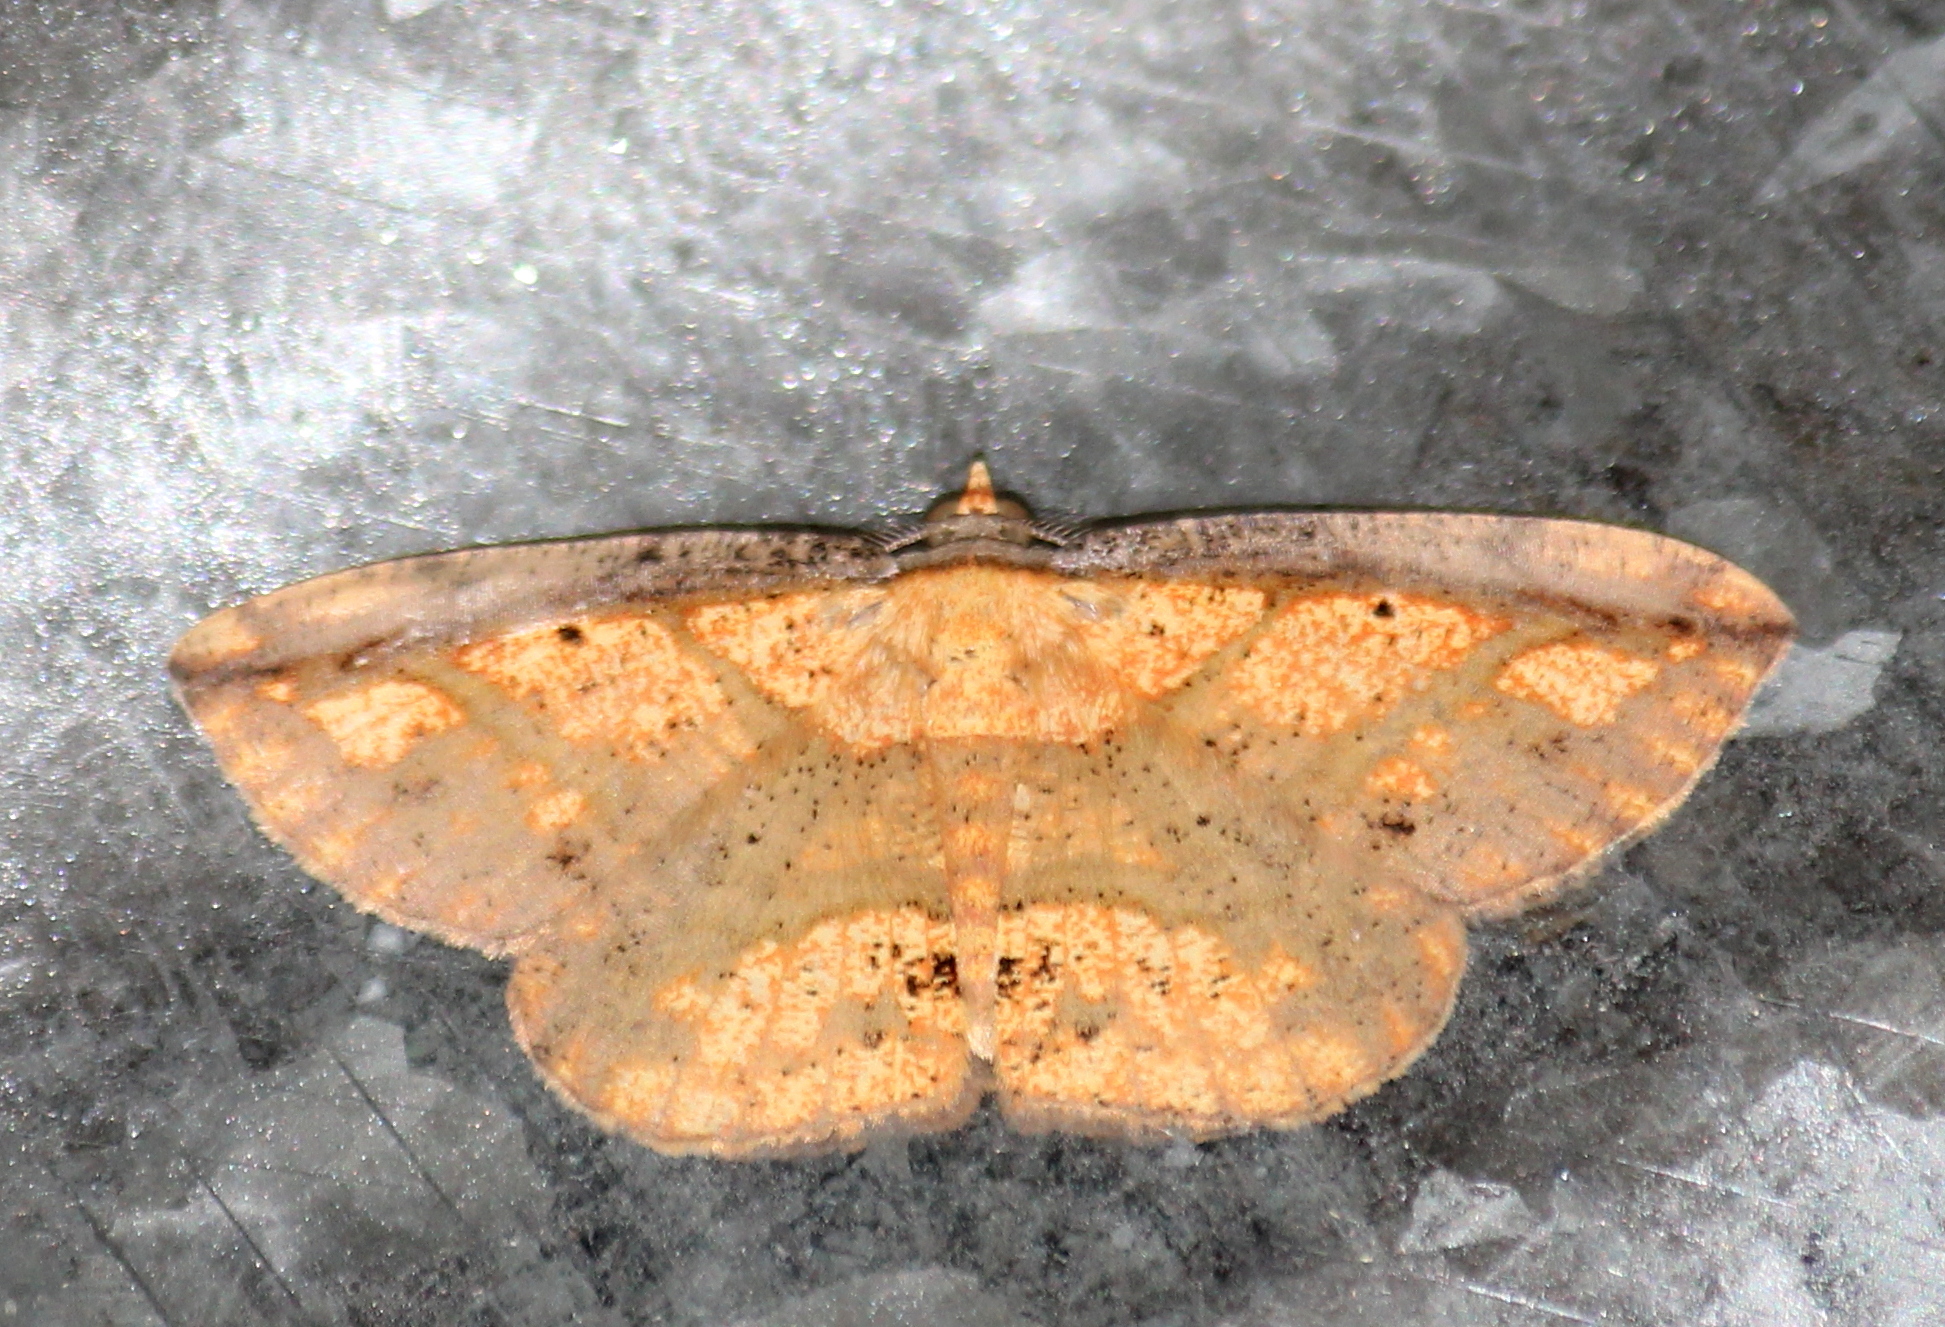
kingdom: Animalia
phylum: Arthropoda
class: Insecta
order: Lepidoptera
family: Geometridae
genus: Platycerota
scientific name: Platycerota vitticostata
